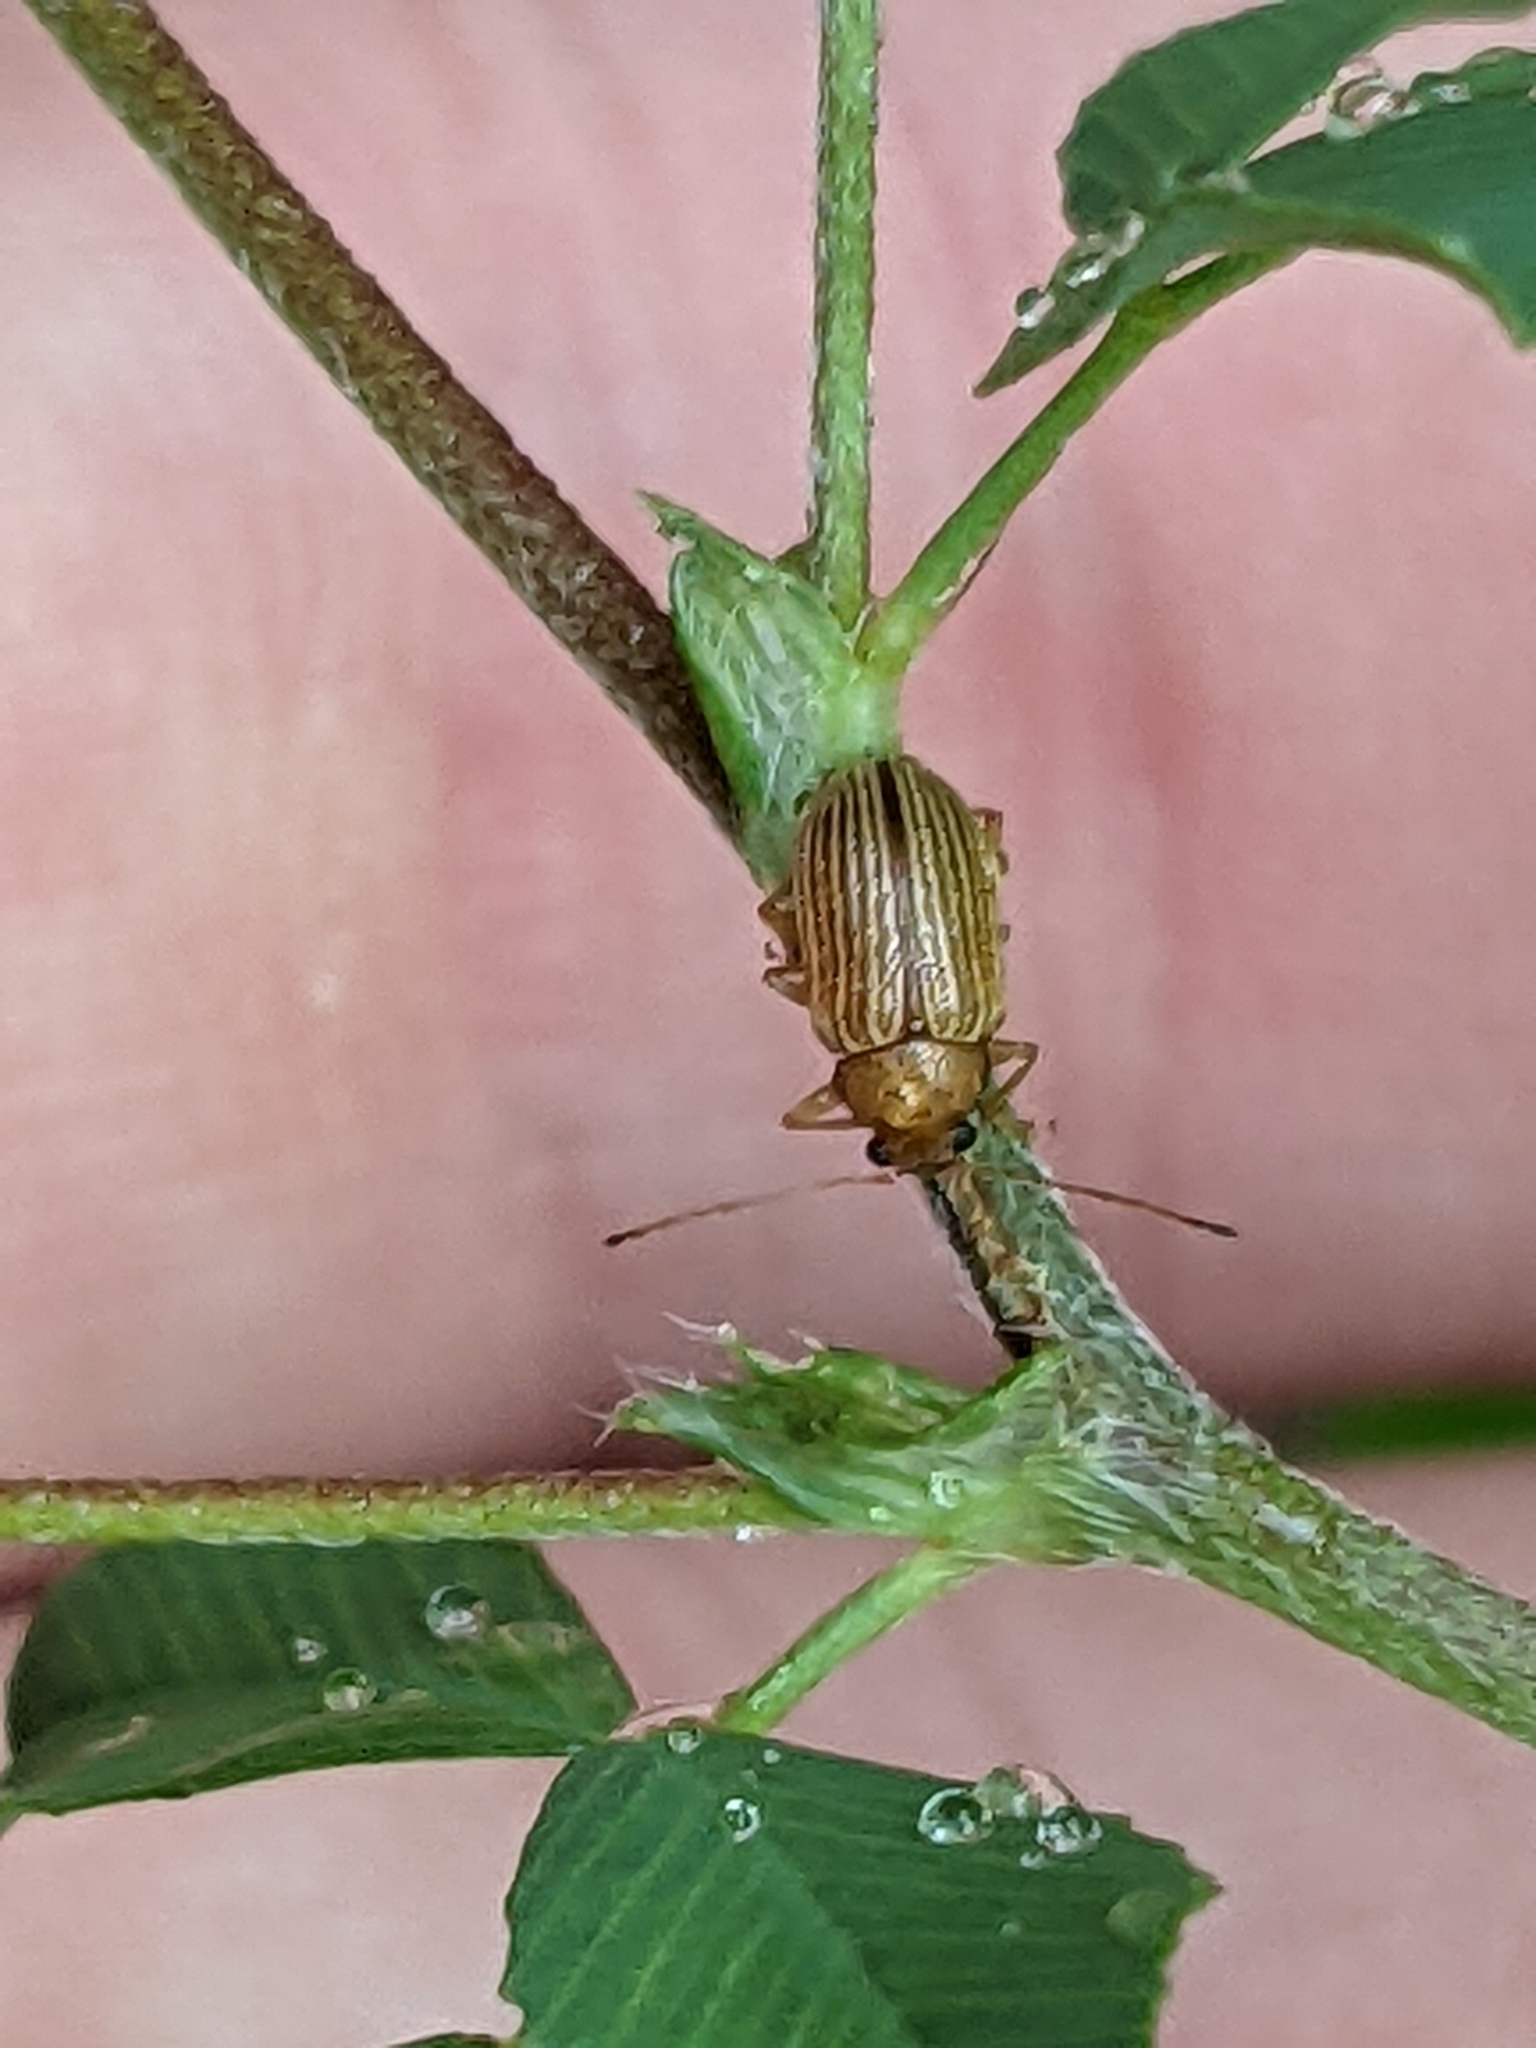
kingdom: Animalia
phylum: Arthropoda
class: Insecta
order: Coleoptera
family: Chrysomelidae
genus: Colaspis
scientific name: Colaspis brunnea
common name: Grape colaspis
